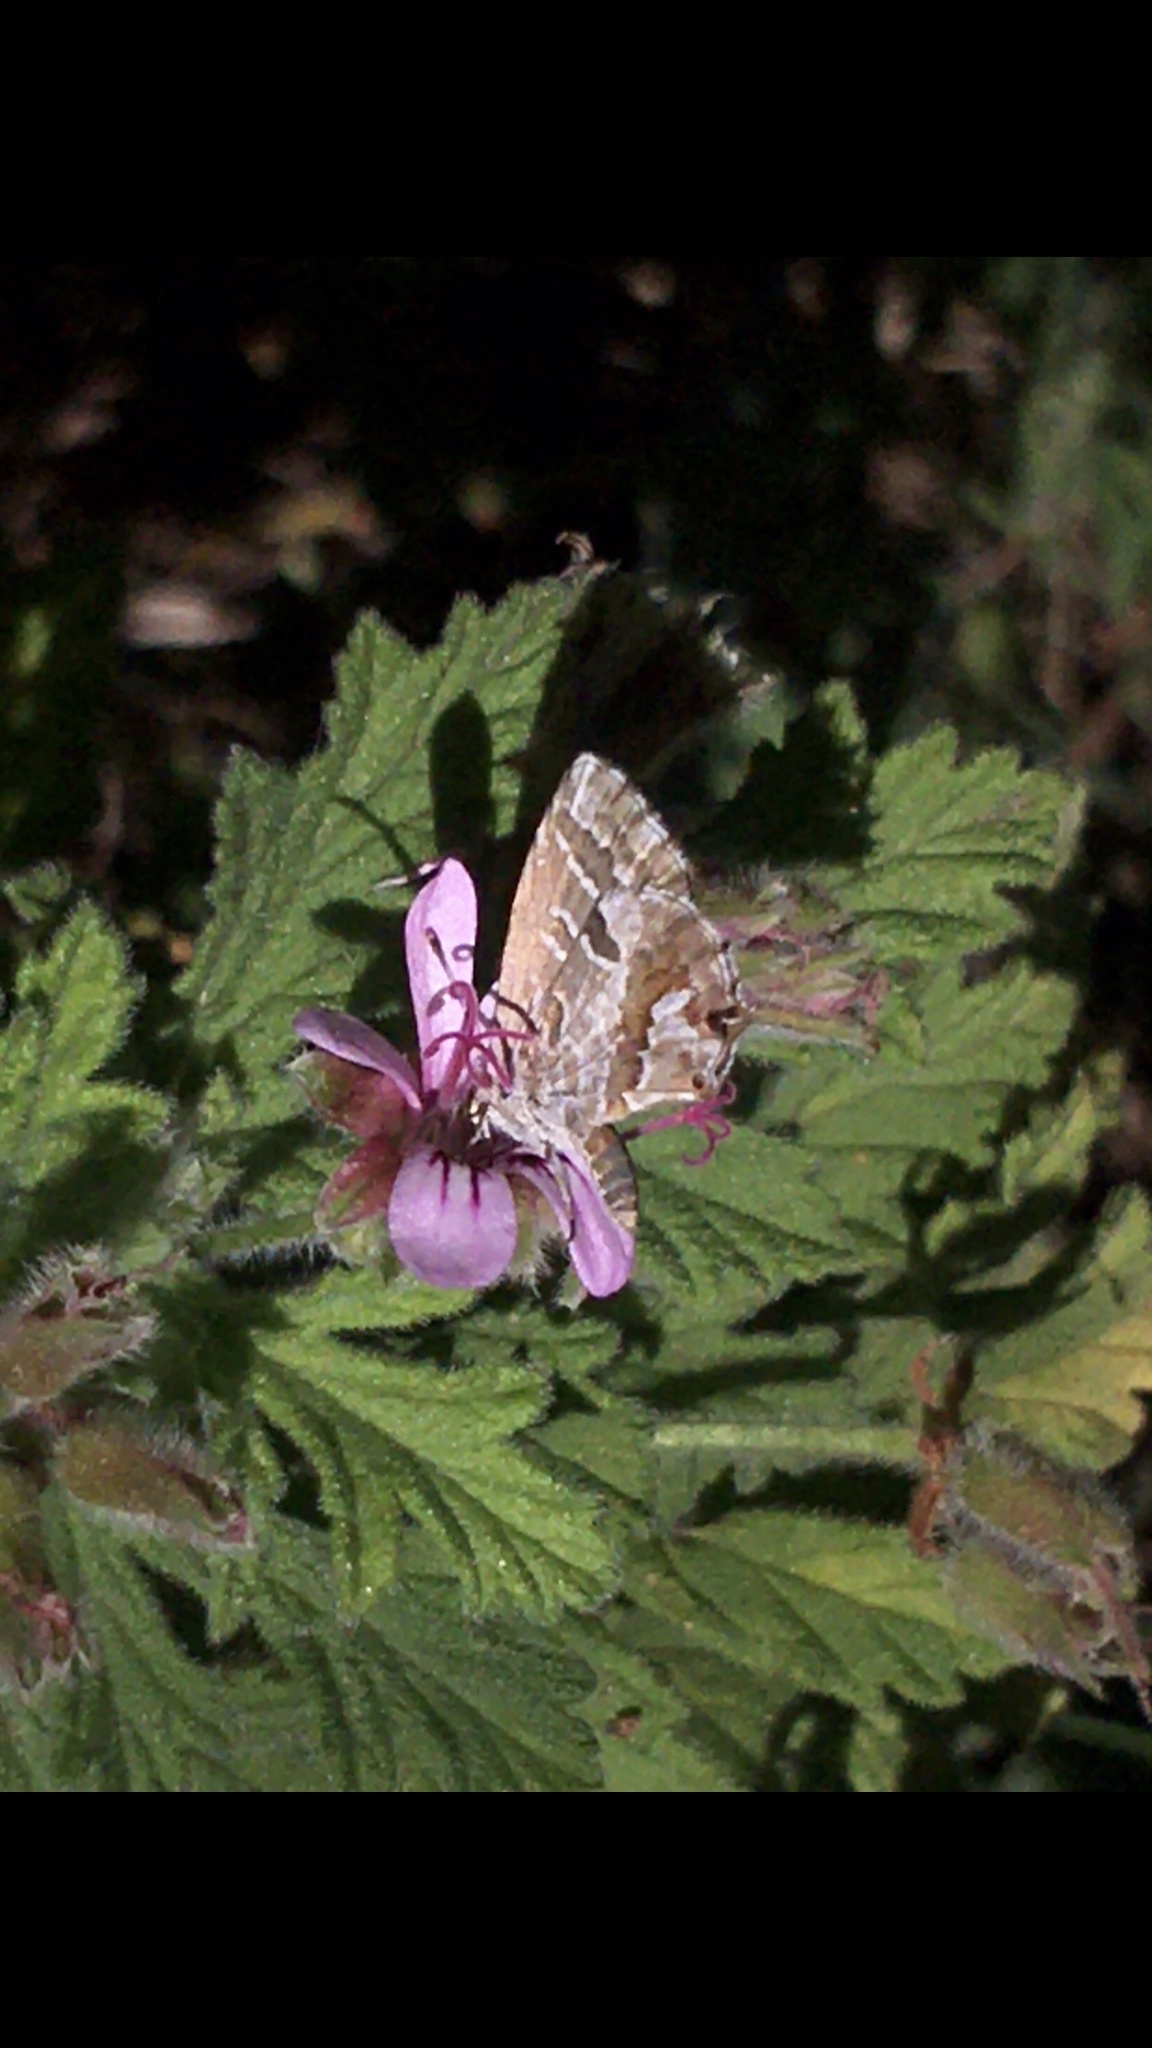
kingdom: Animalia
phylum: Arthropoda
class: Insecta
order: Lepidoptera
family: Lycaenidae
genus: Cacyreus
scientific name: Cacyreus fracta
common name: Water bronze
